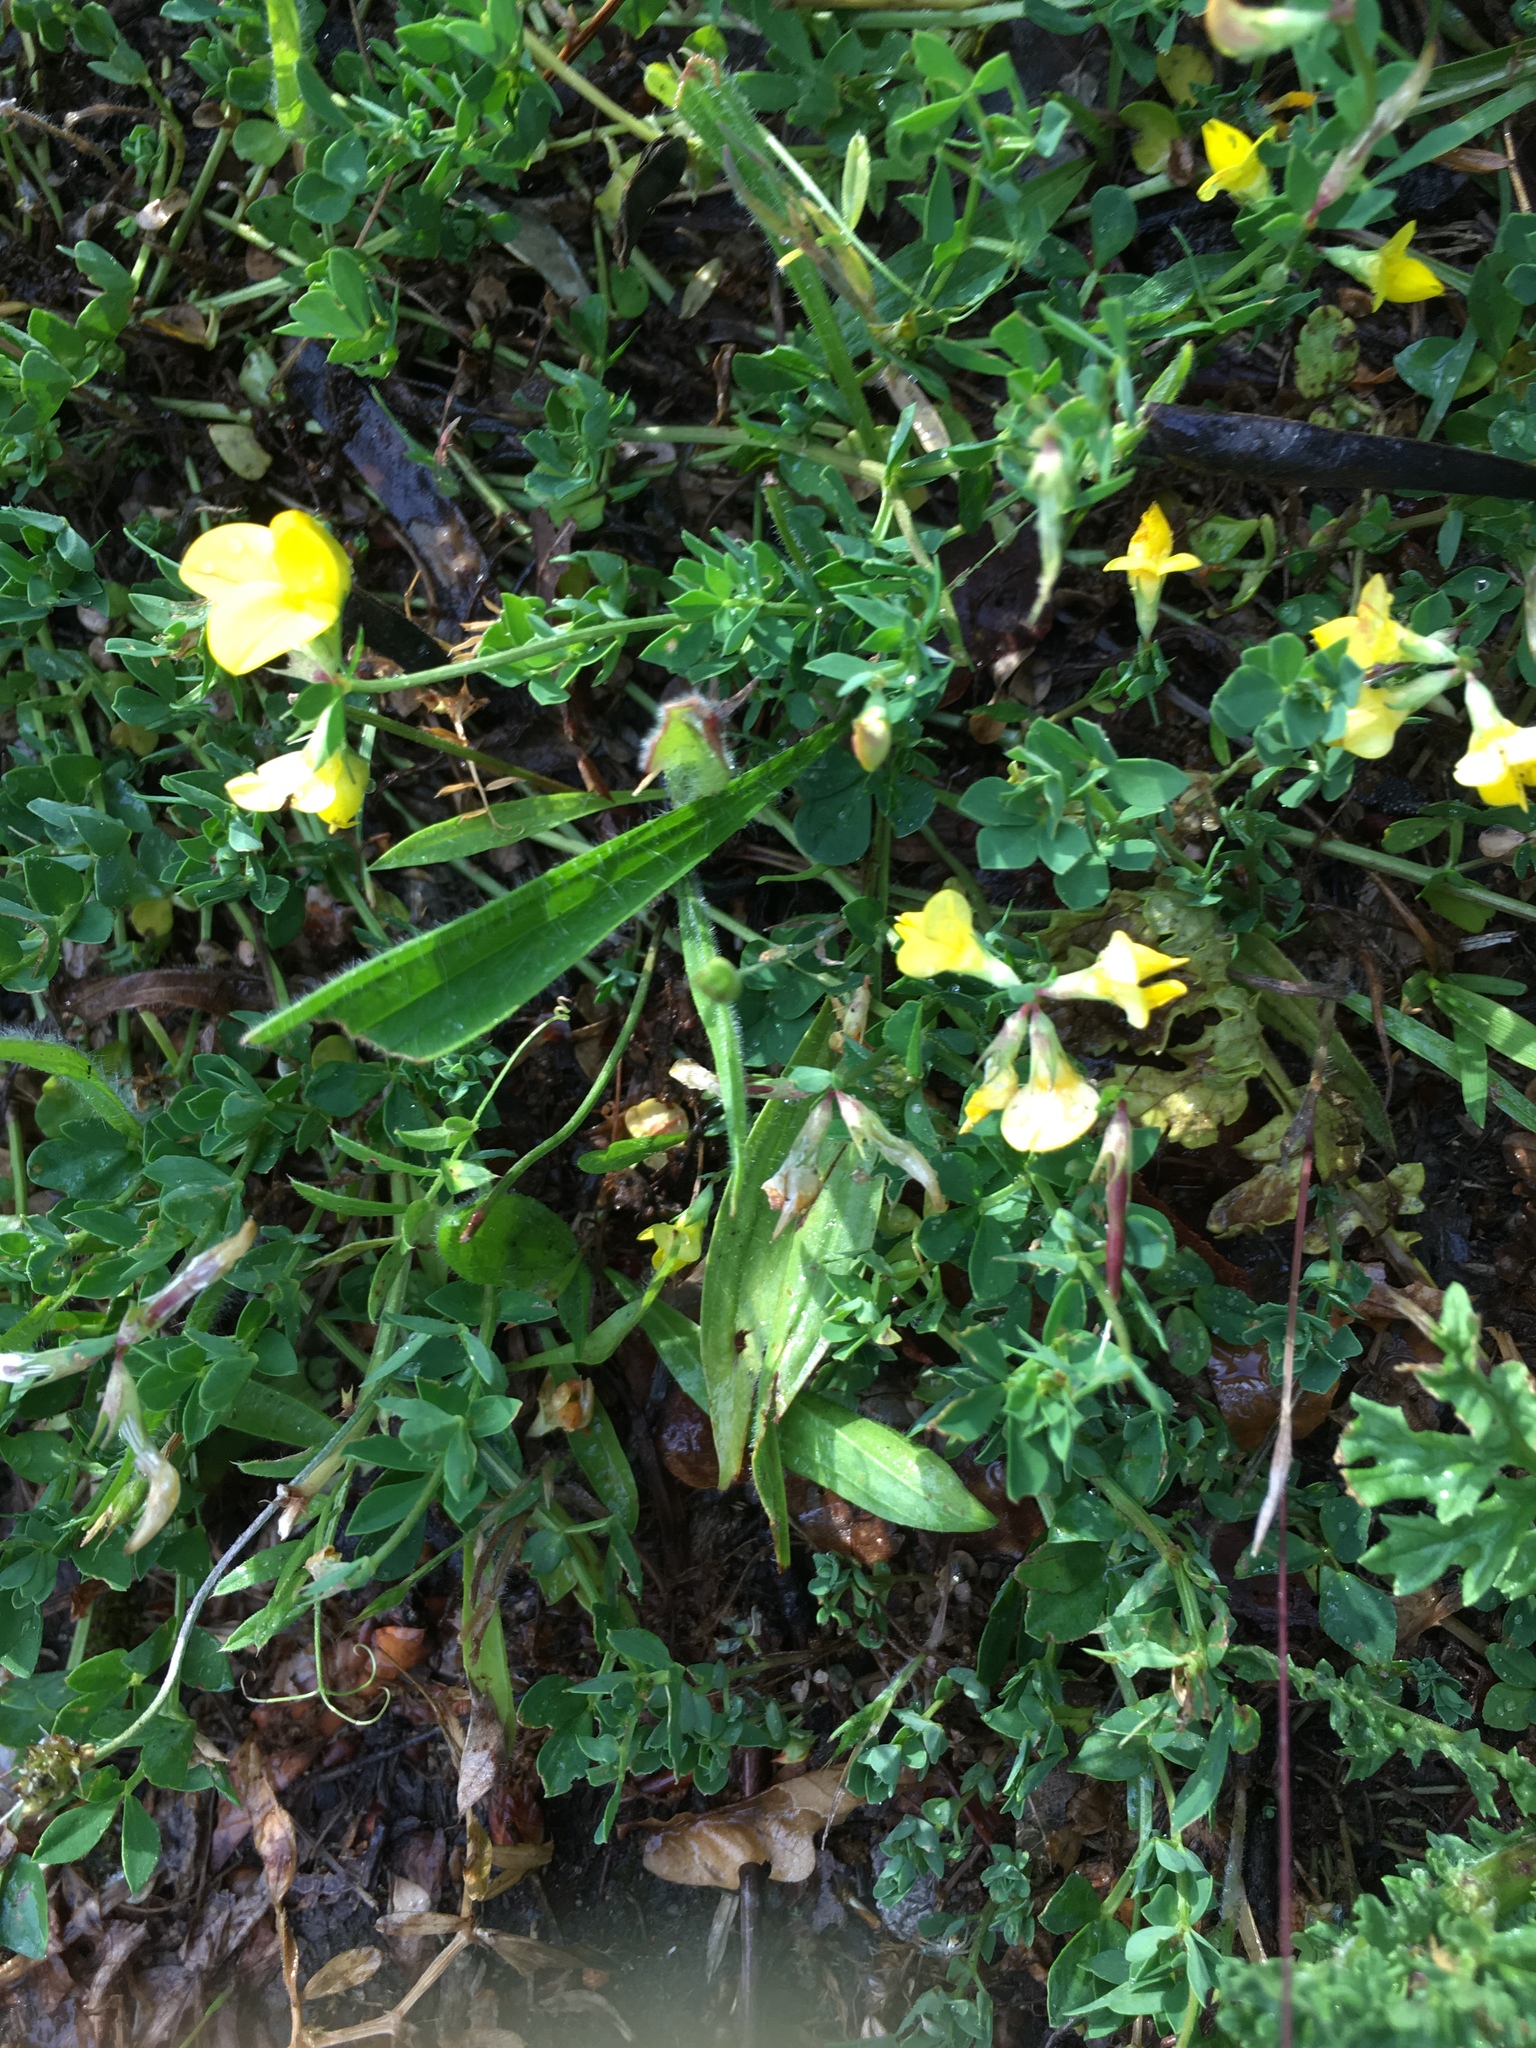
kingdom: Plantae
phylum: Tracheophyta
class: Magnoliopsida
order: Fabales
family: Fabaceae
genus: Lotus
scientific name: Lotus corniculatus
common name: Common bird's-foot-trefoil
